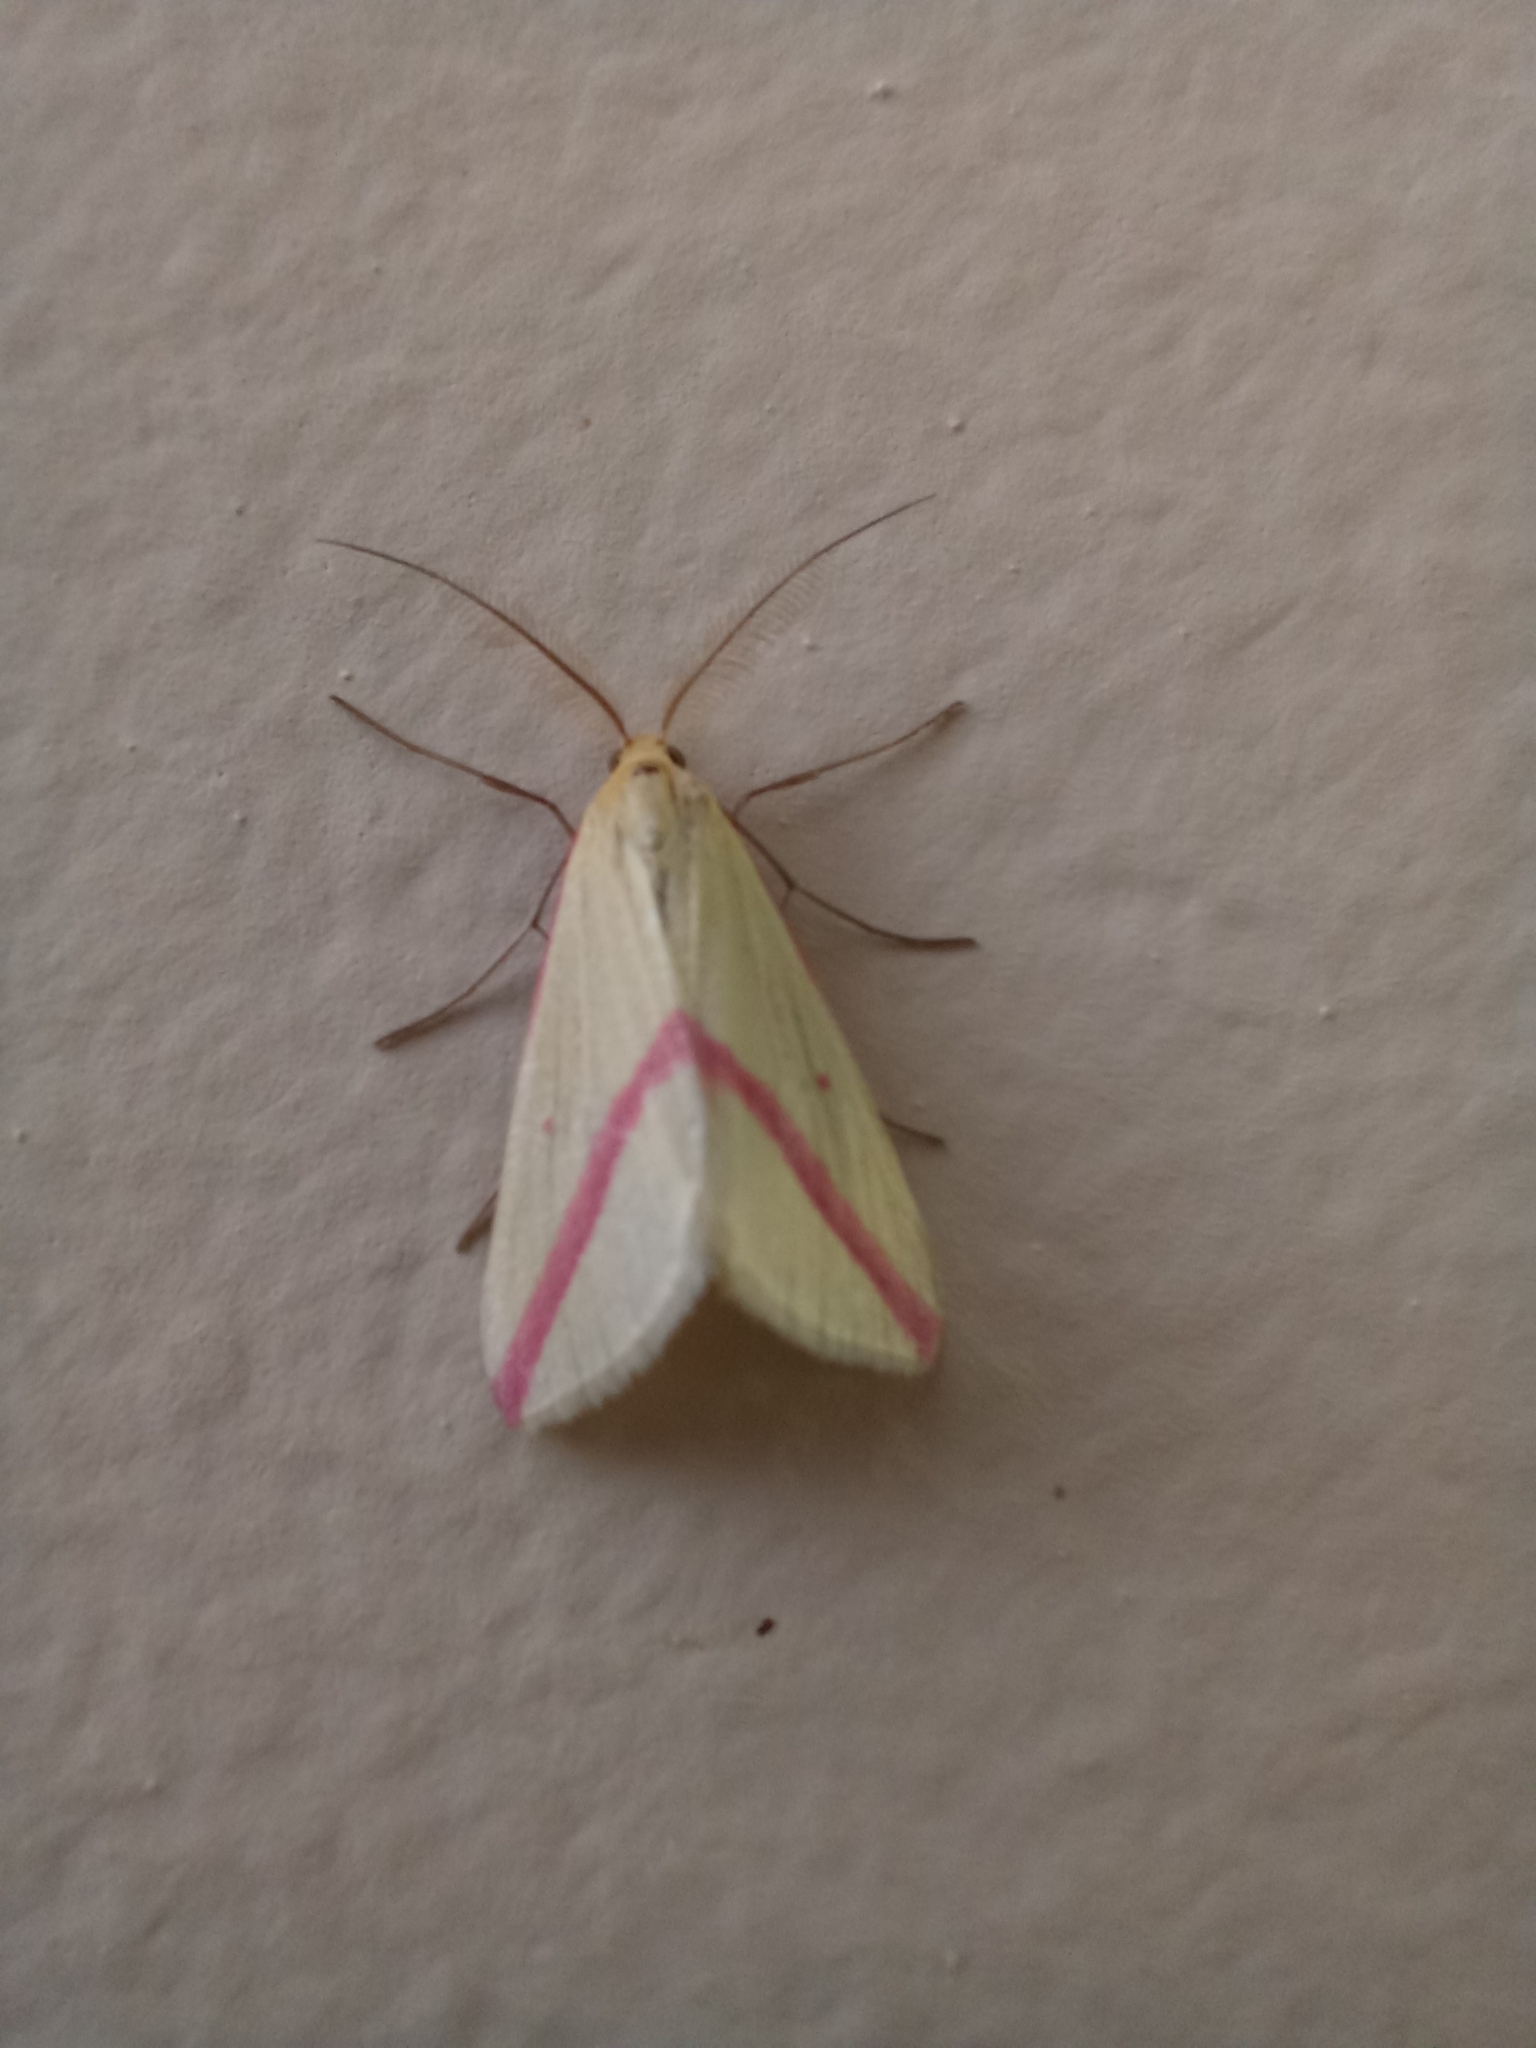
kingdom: Animalia
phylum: Arthropoda
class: Insecta
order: Lepidoptera
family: Geometridae
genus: Rhodometra
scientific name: Rhodometra sacraria
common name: Vestal
